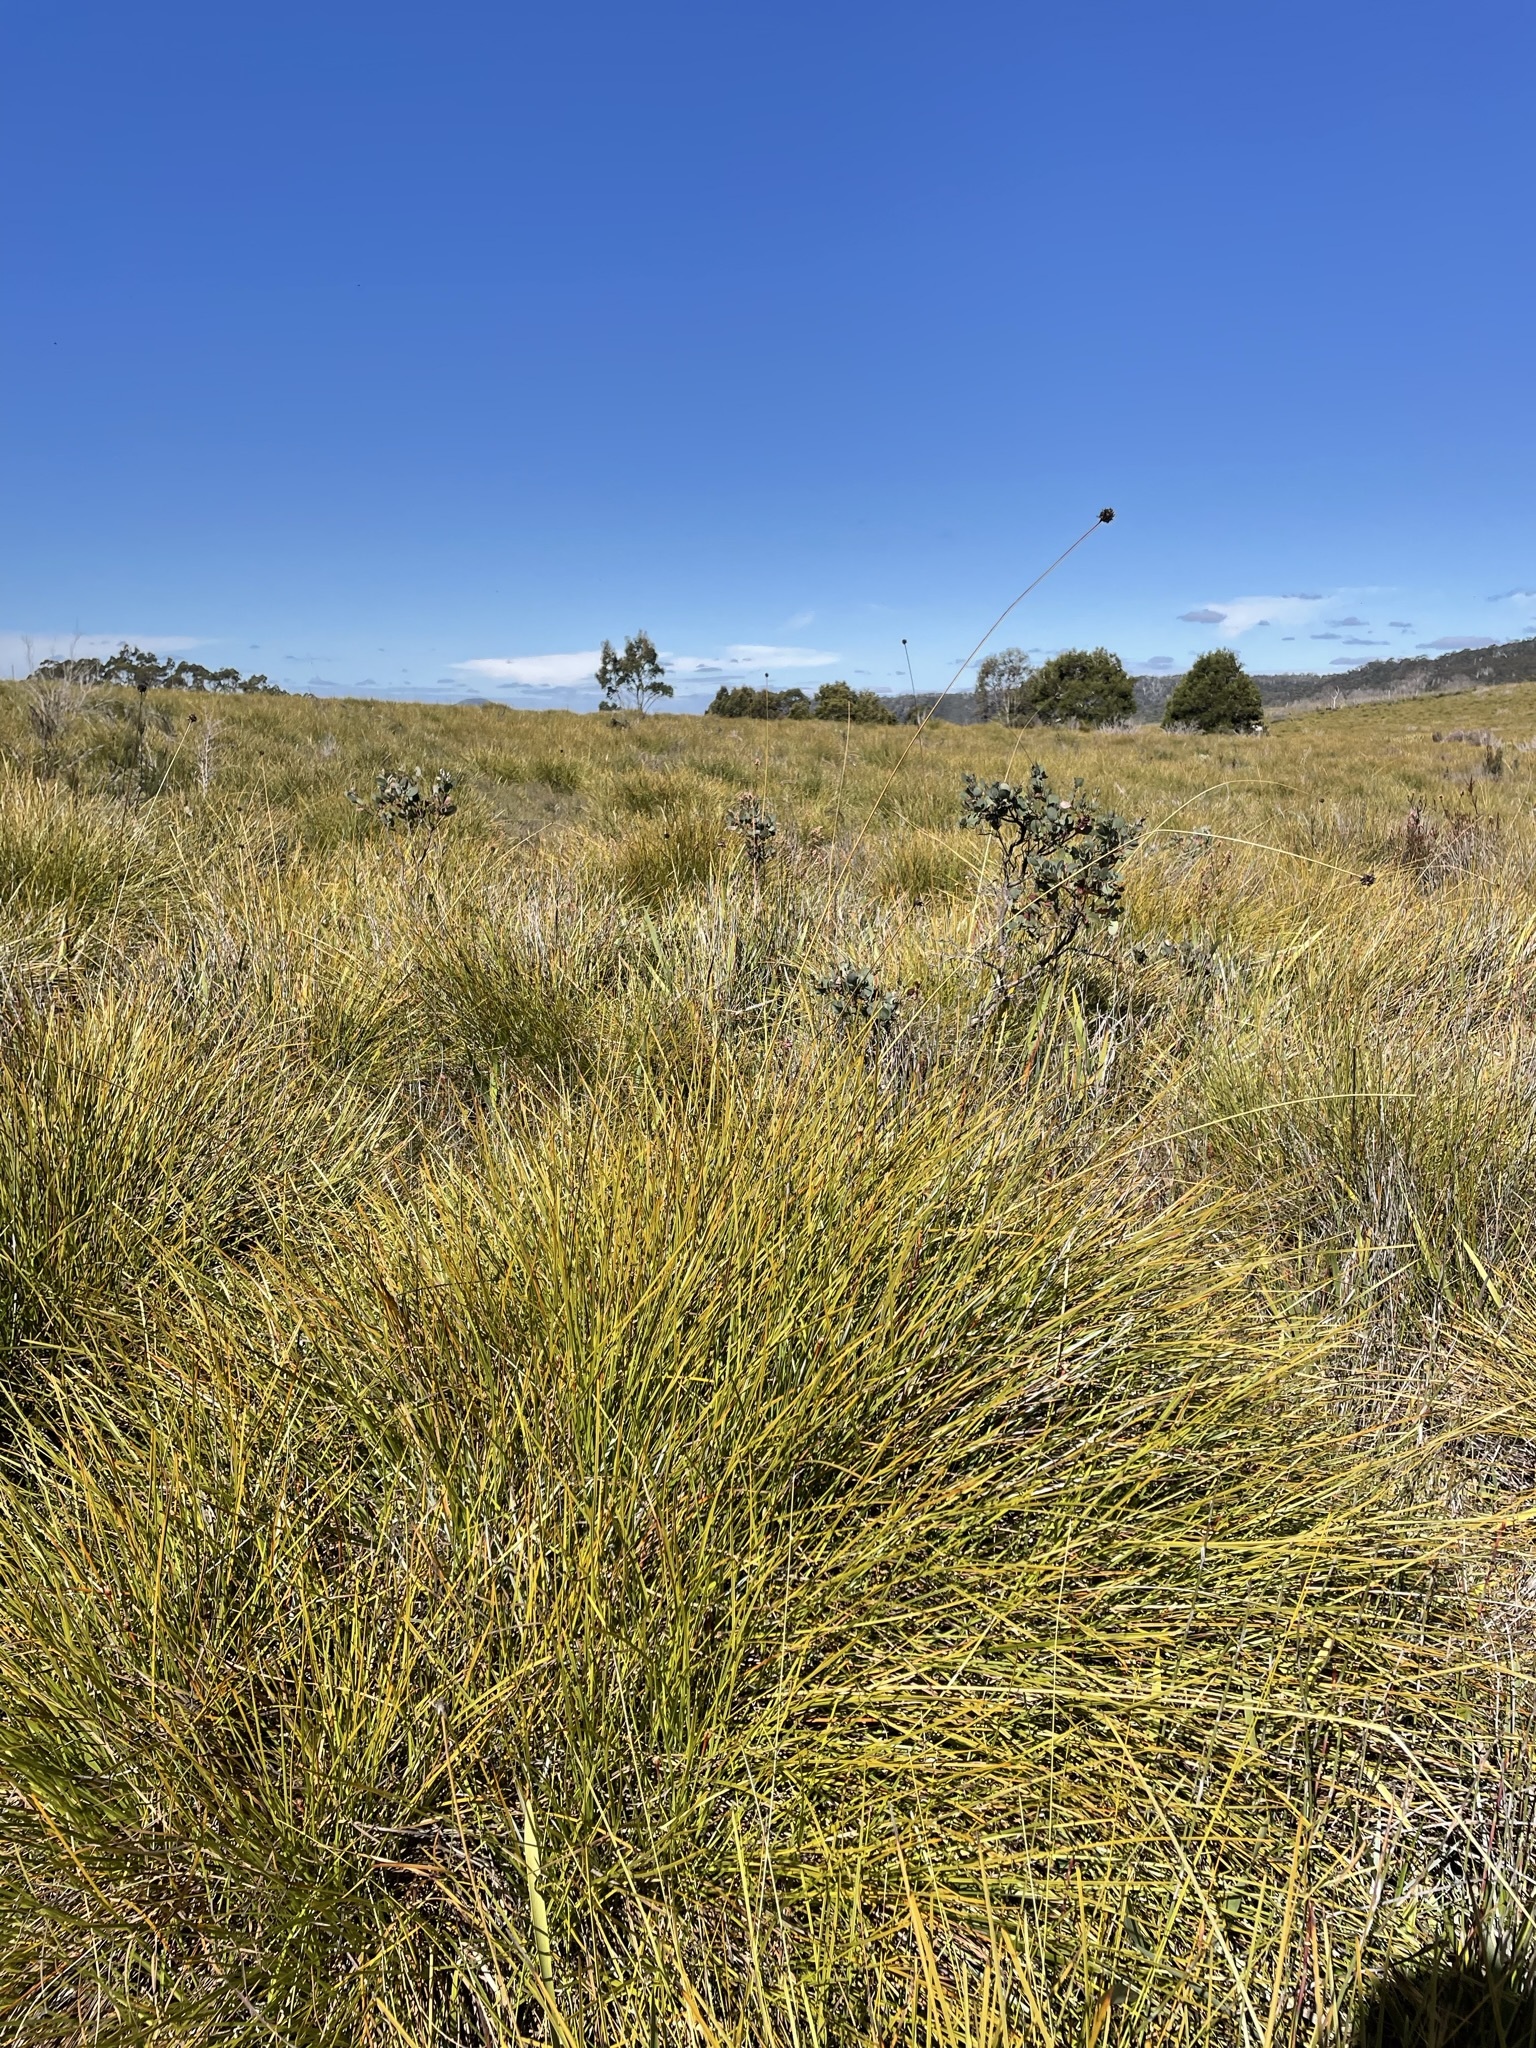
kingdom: Plantae
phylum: Tracheophyta
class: Liliopsida
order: Poales
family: Cyperaceae
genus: Gymnoschoenus
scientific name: Gymnoschoenus sphaerocephalus
